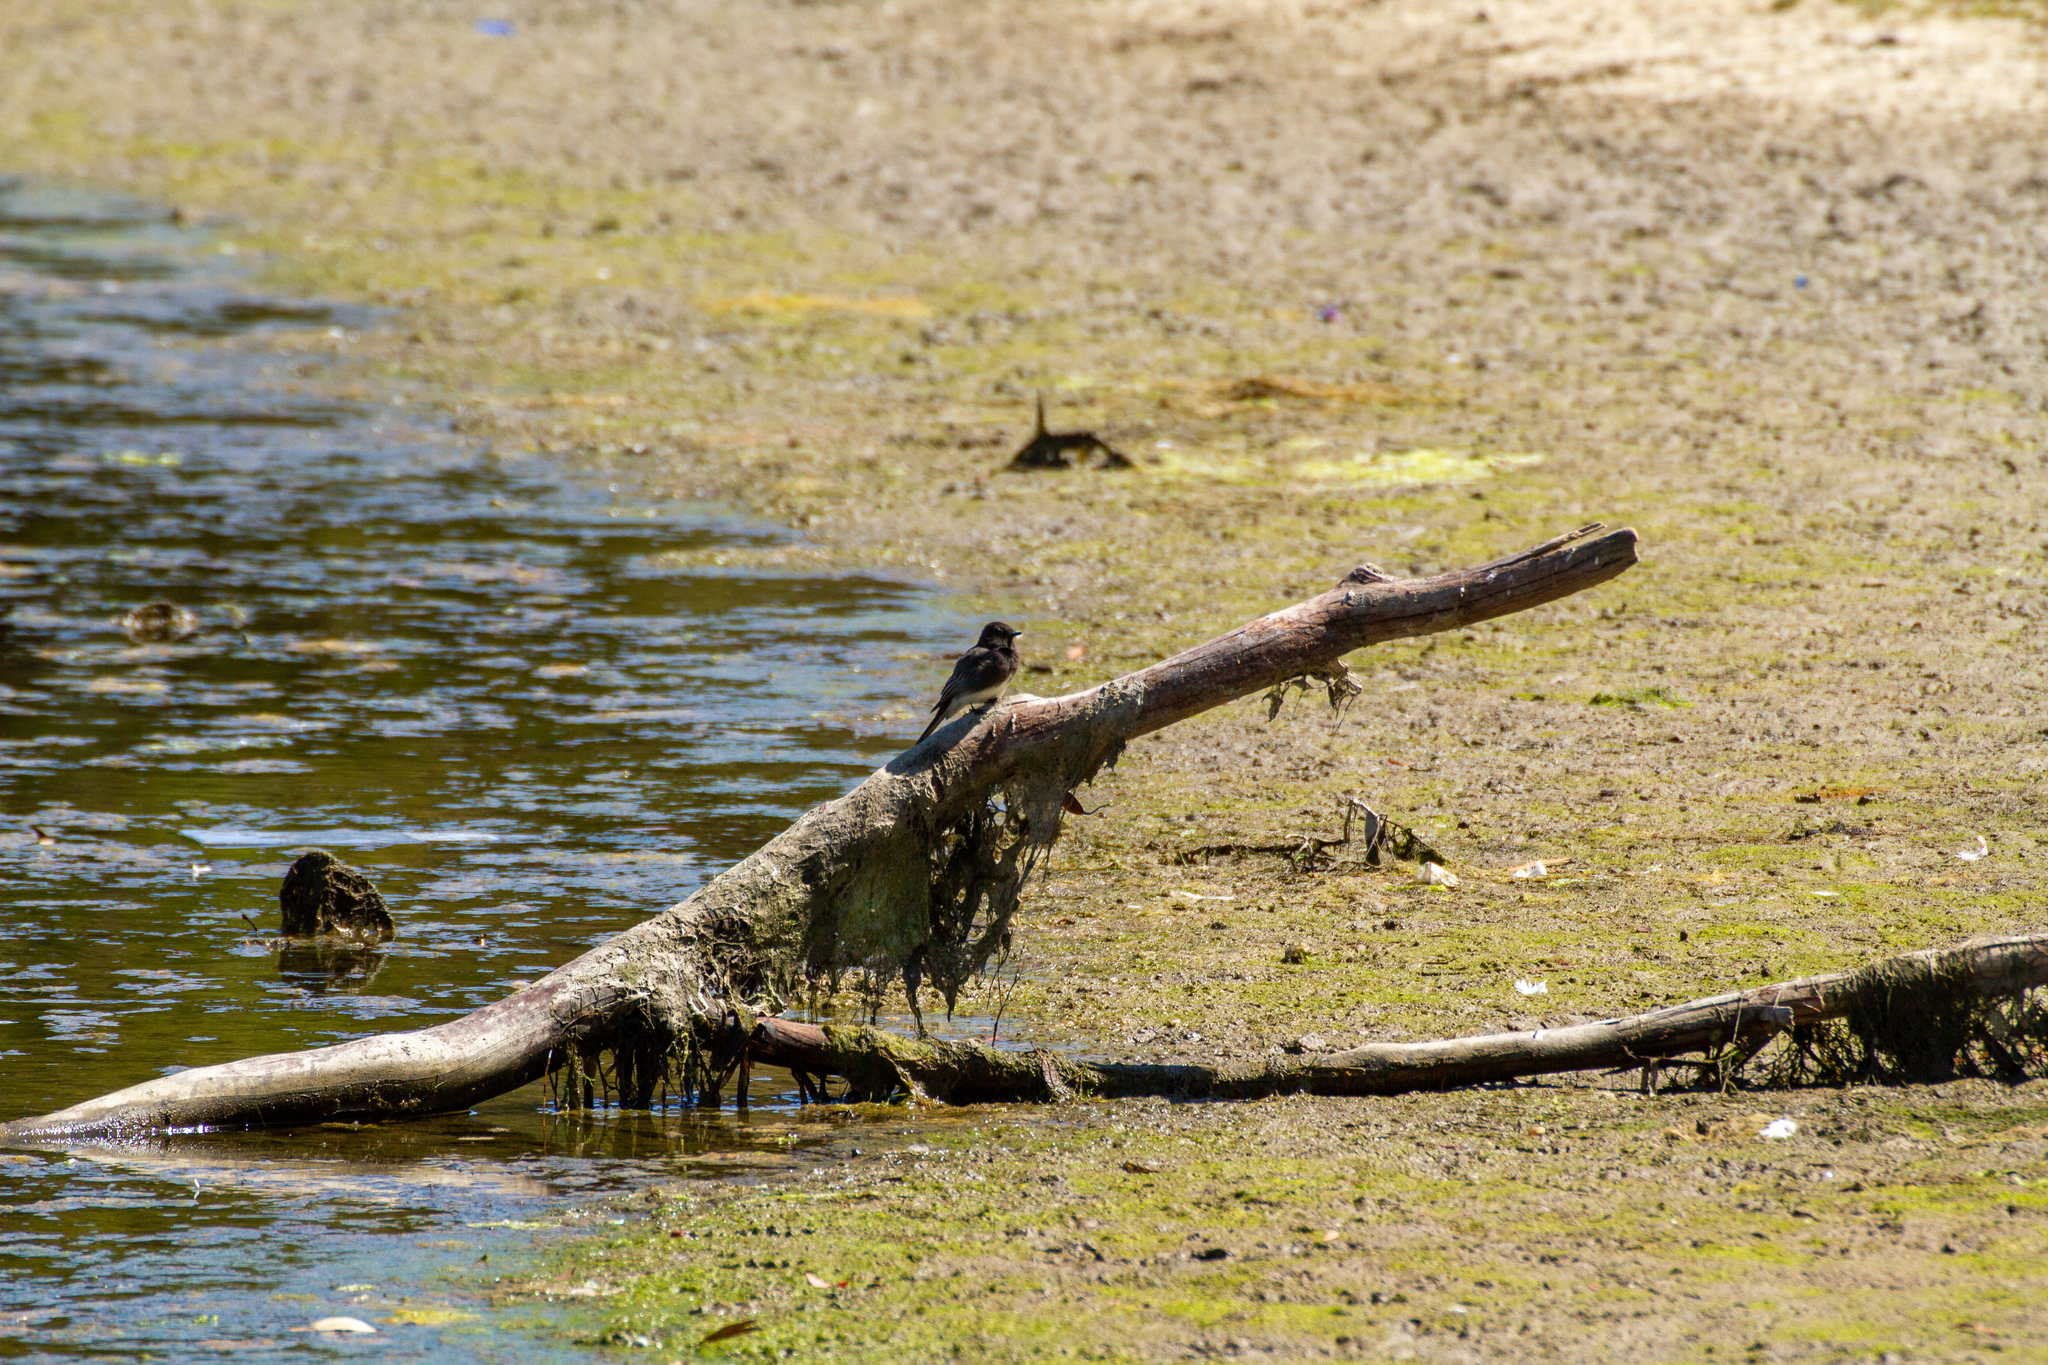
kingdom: Animalia
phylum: Chordata
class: Aves
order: Passeriformes
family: Tyrannidae
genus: Sayornis
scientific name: Sayornis nigricans
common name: Black phoebe
